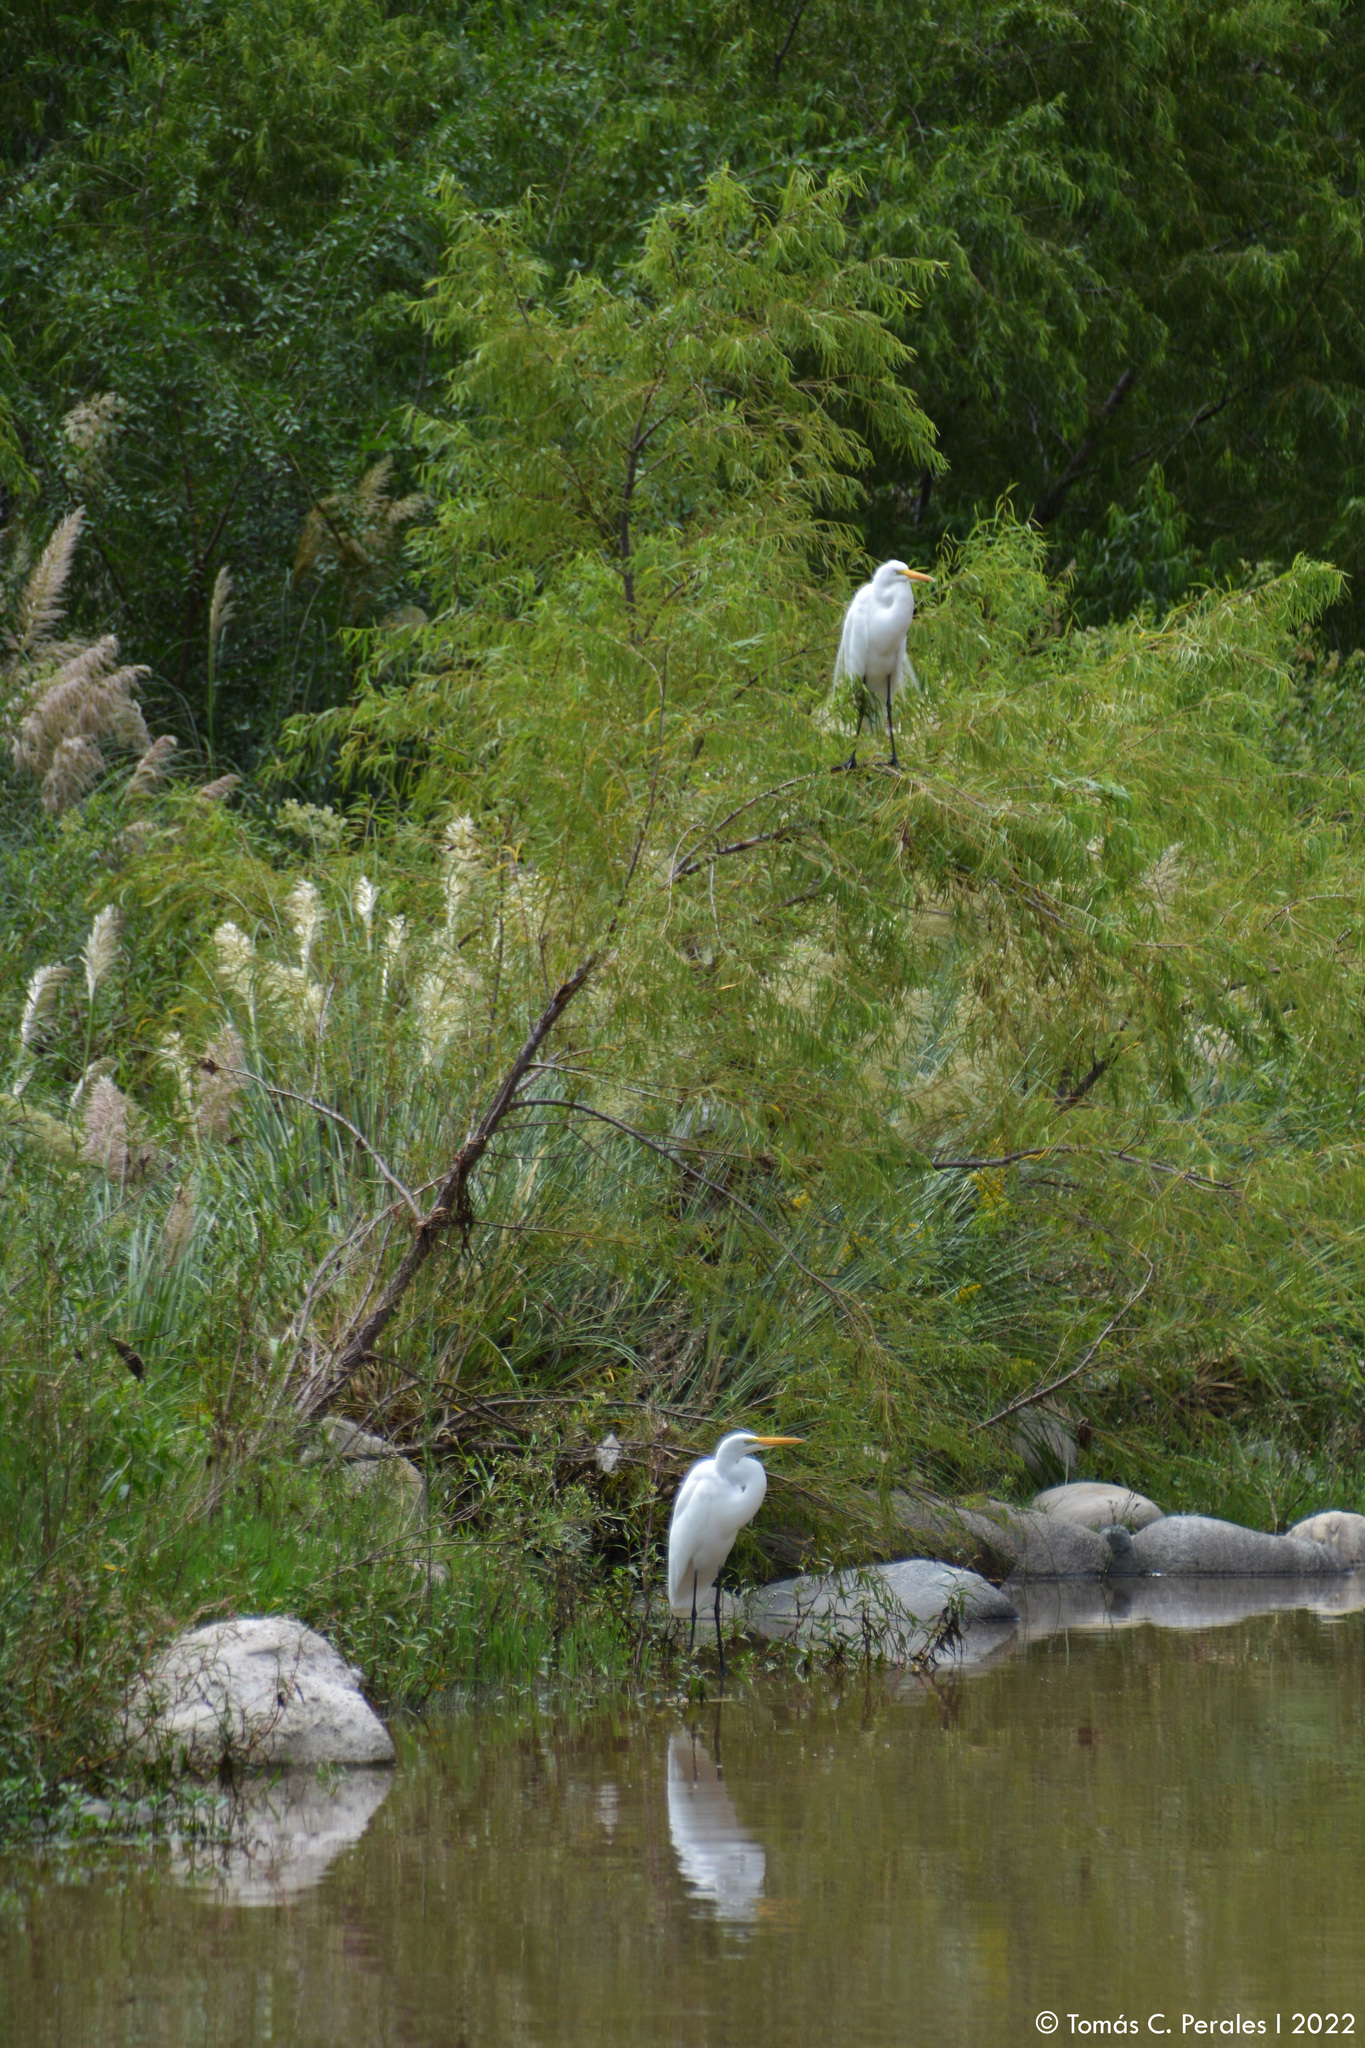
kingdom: Animalia
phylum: Chordata
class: Aves
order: Pelecaniformes
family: Ardeidae
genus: Ardea
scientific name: Ardea alba
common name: Great egret
